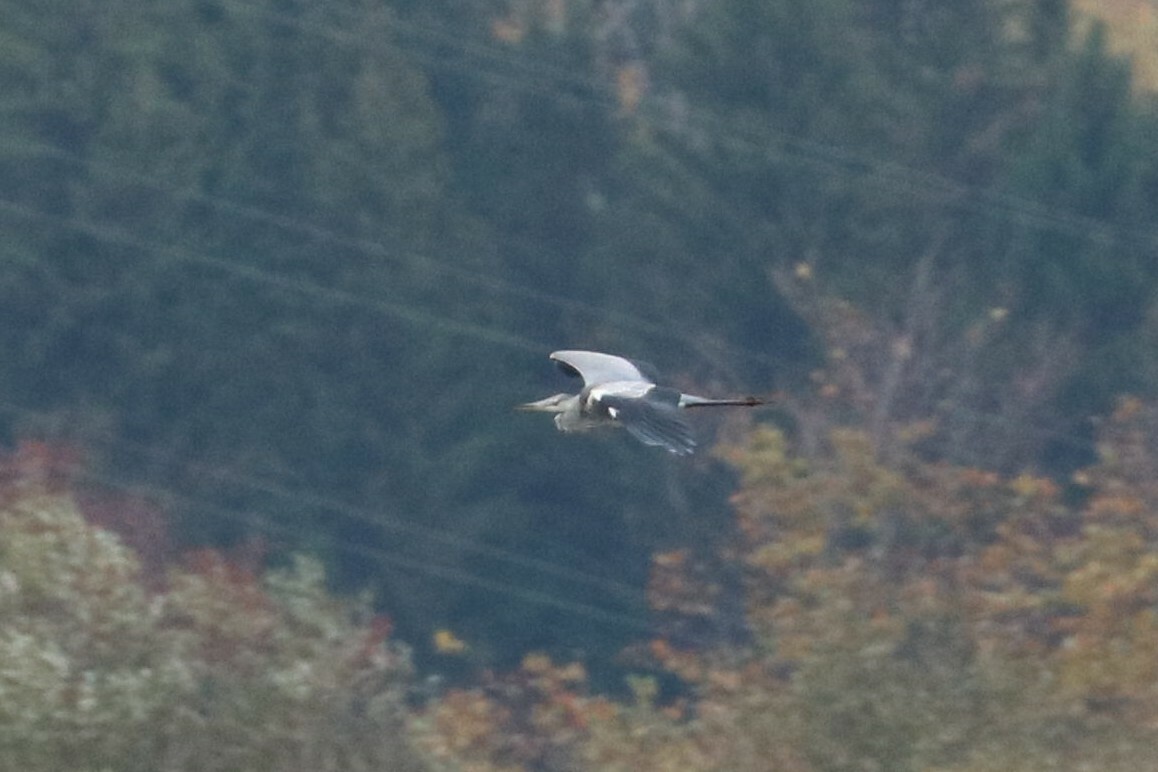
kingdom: Animalia
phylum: Chordata
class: Aves
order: Pelecaniformes
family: Ardeidae
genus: Ardea
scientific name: Ardea cinerea
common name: Grey heron
